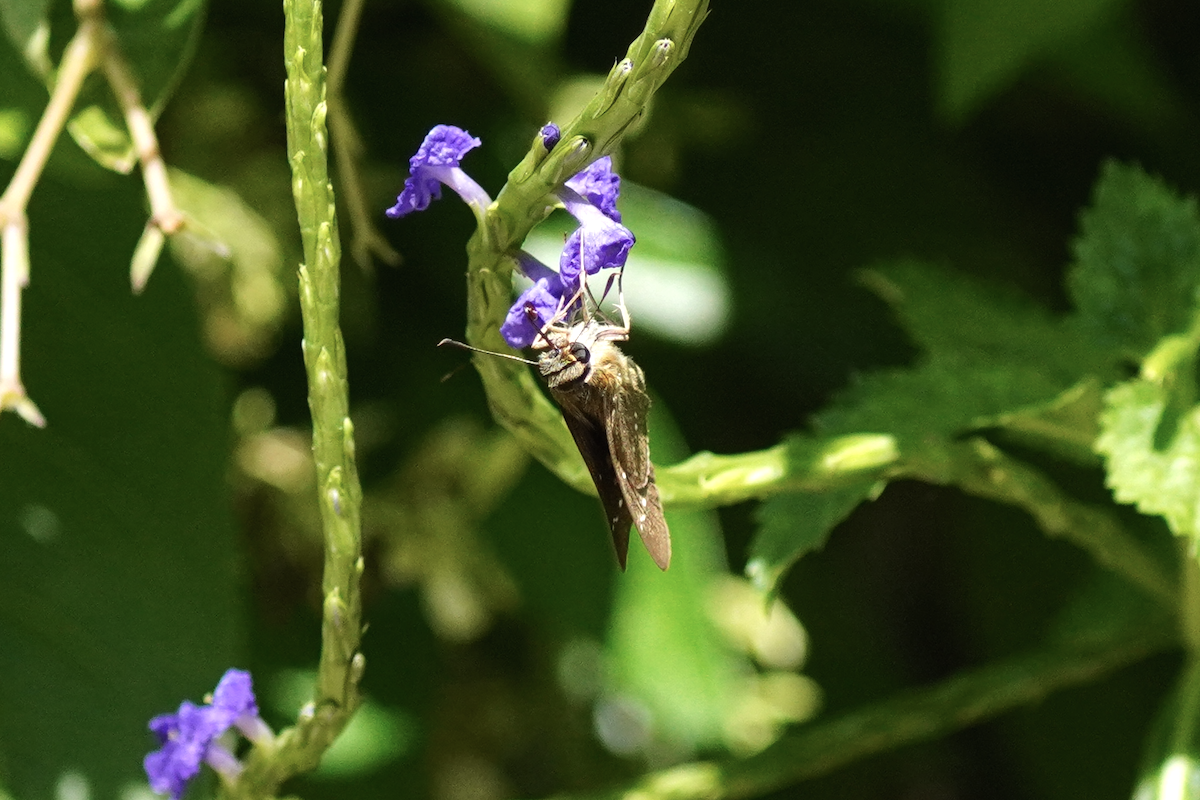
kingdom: Animalia
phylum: Arthropoda
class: Insecta
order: Lepidoptera
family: Hesperiidae
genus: Borbo
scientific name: Borbo cinnara
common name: Formosan swift
